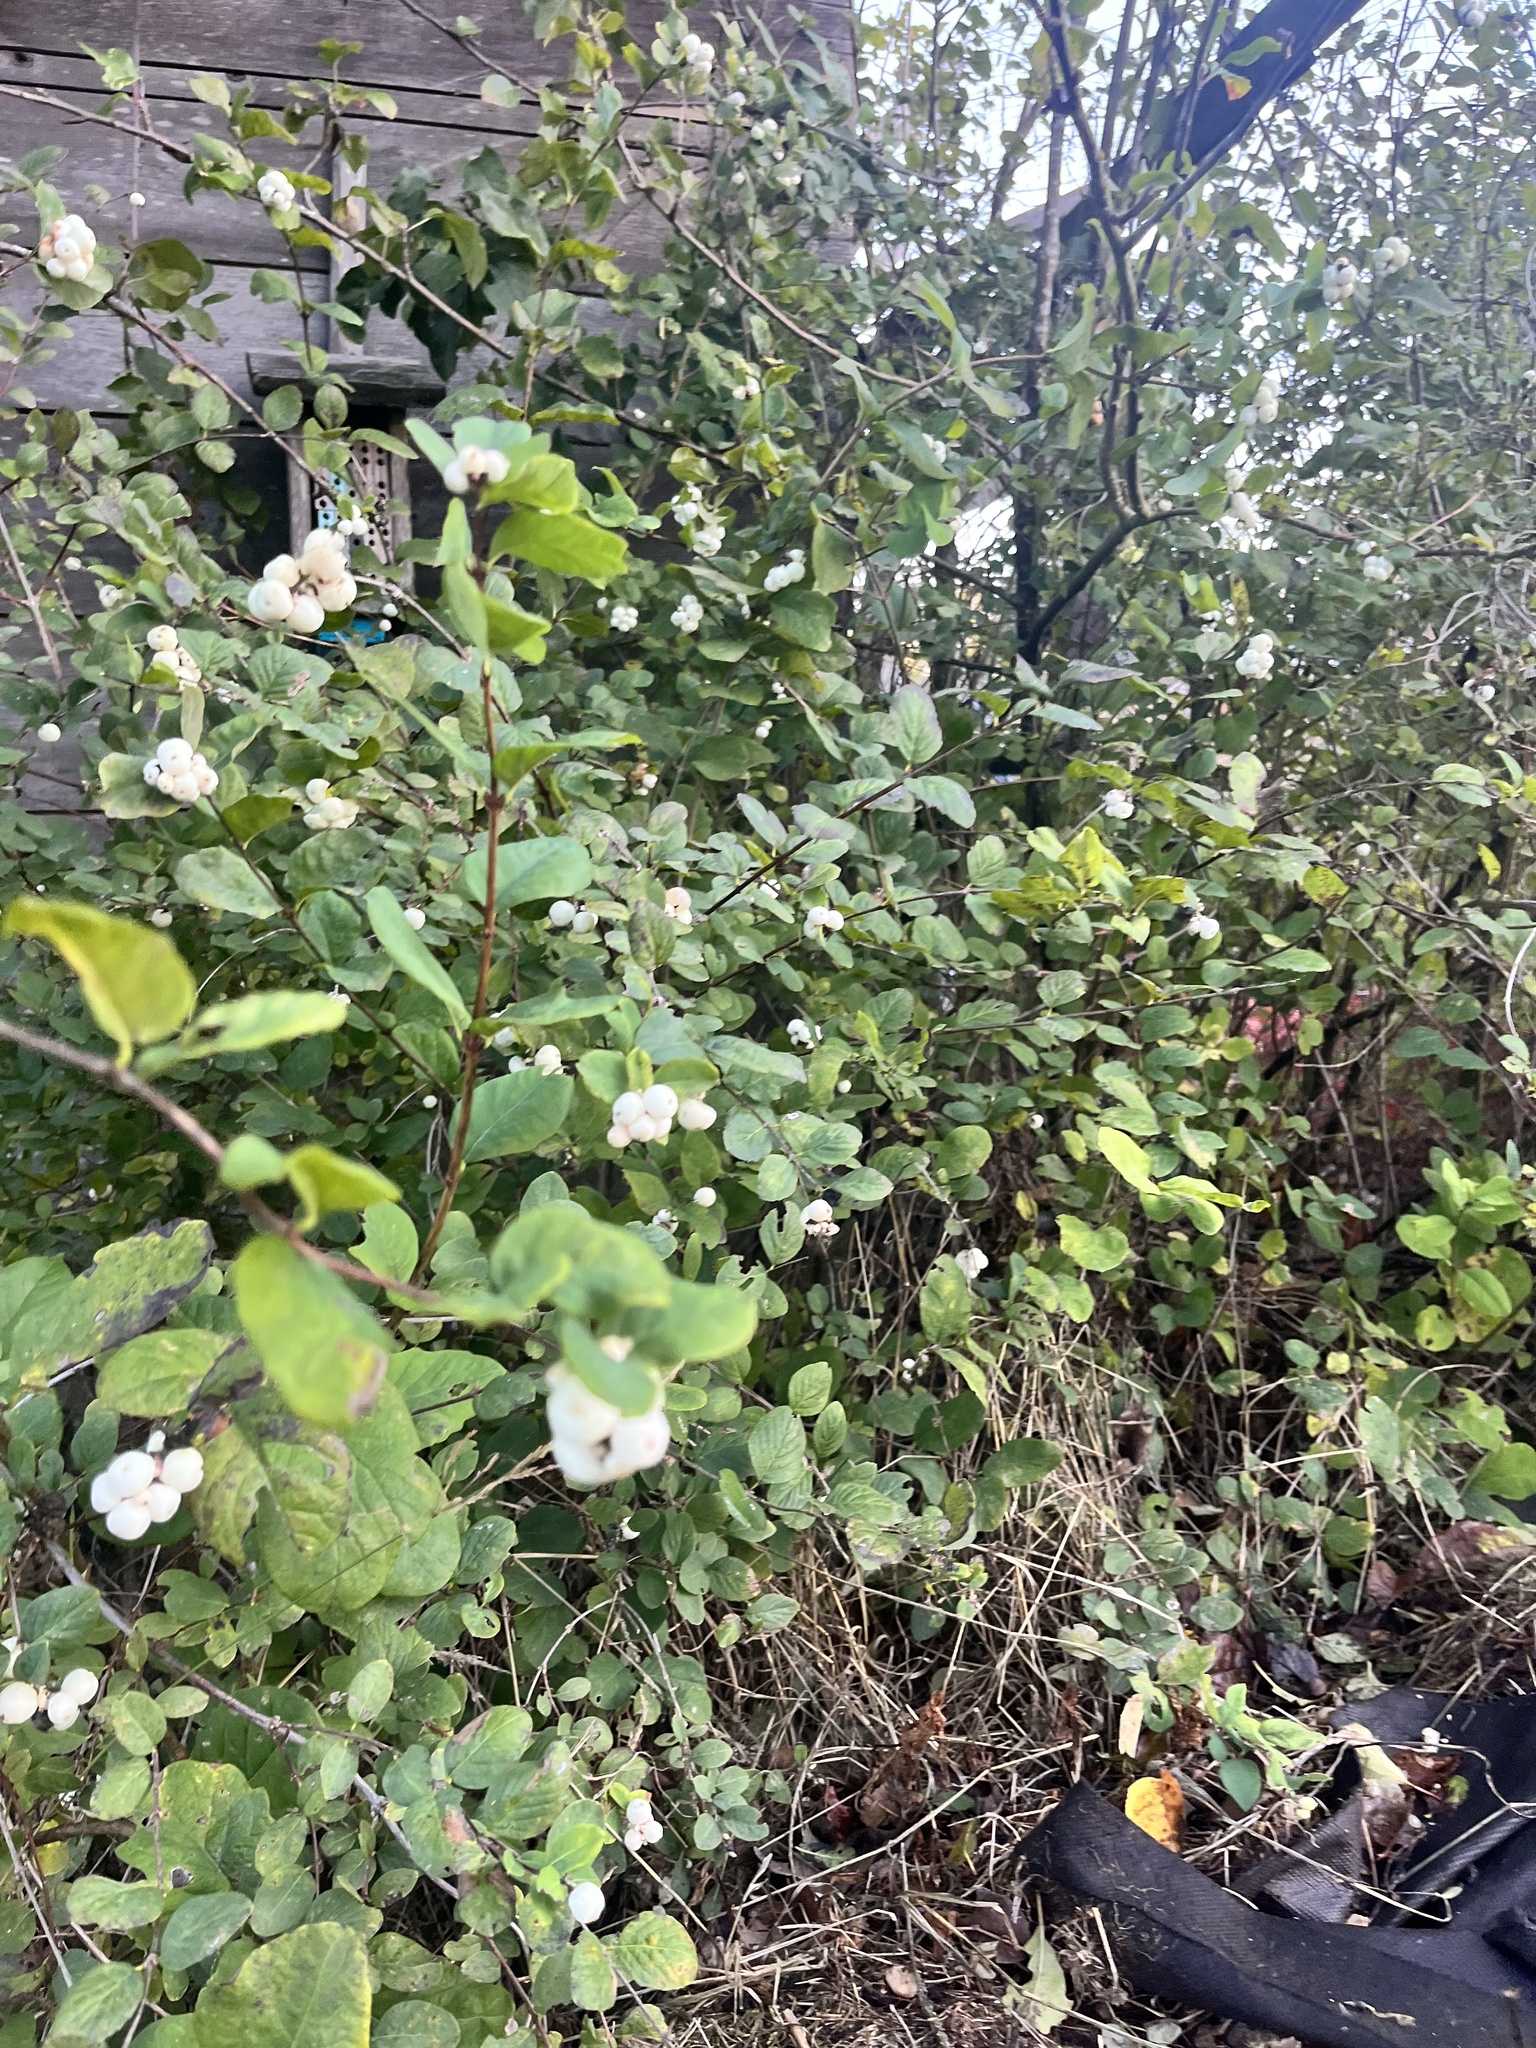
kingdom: Plantae
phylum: Tracheophyta
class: Magnoliopsida
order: Dipsacales
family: Caprifoliaceae
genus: Symphoricarpos
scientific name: Symphoricarpos albus
